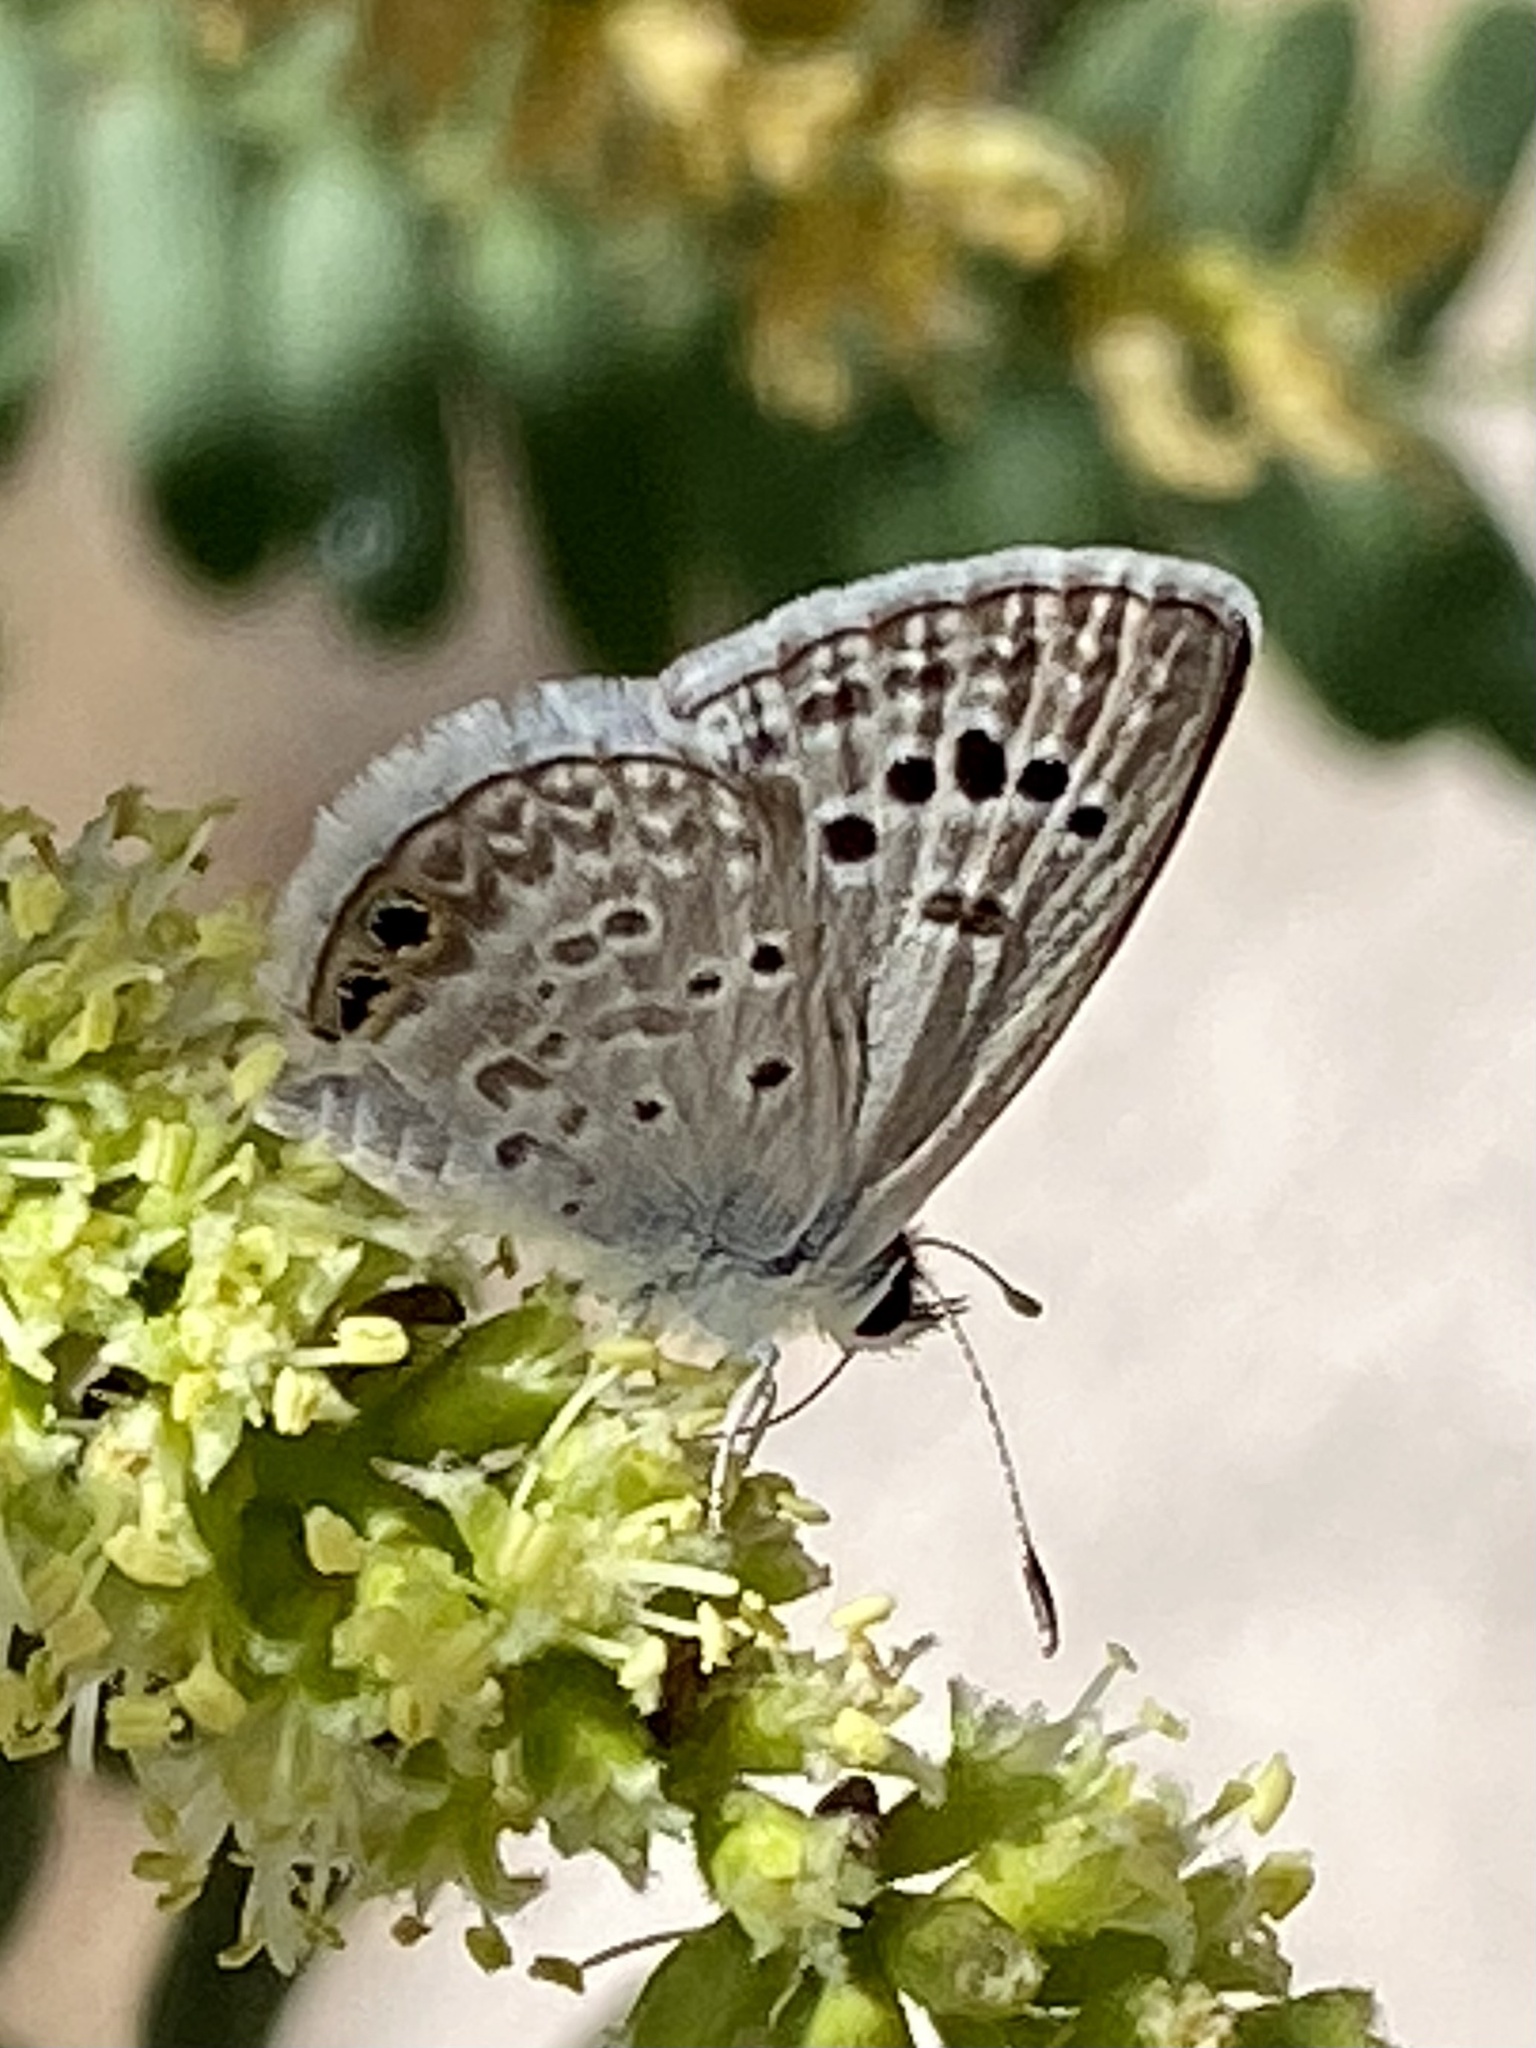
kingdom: Animalia
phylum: Arthropoda
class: Insecta
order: Lepidoptera
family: Lycaenidae
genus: Echinargus
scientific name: Echinargus isola
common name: Reakirt's blue
